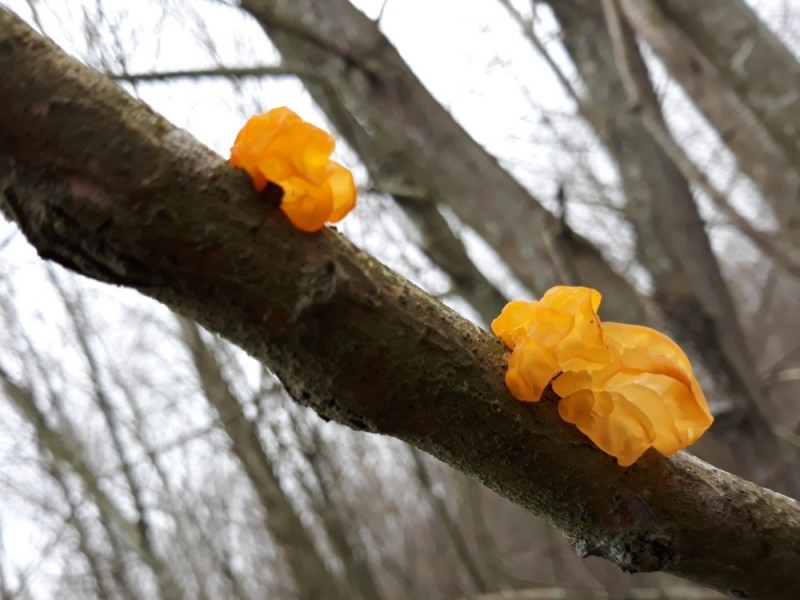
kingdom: Fungi
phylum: Basidiomycota
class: Tremellomycetes
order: Tremellales
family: Tremellaceae
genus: Tremella
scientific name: Tremella mesenterica
